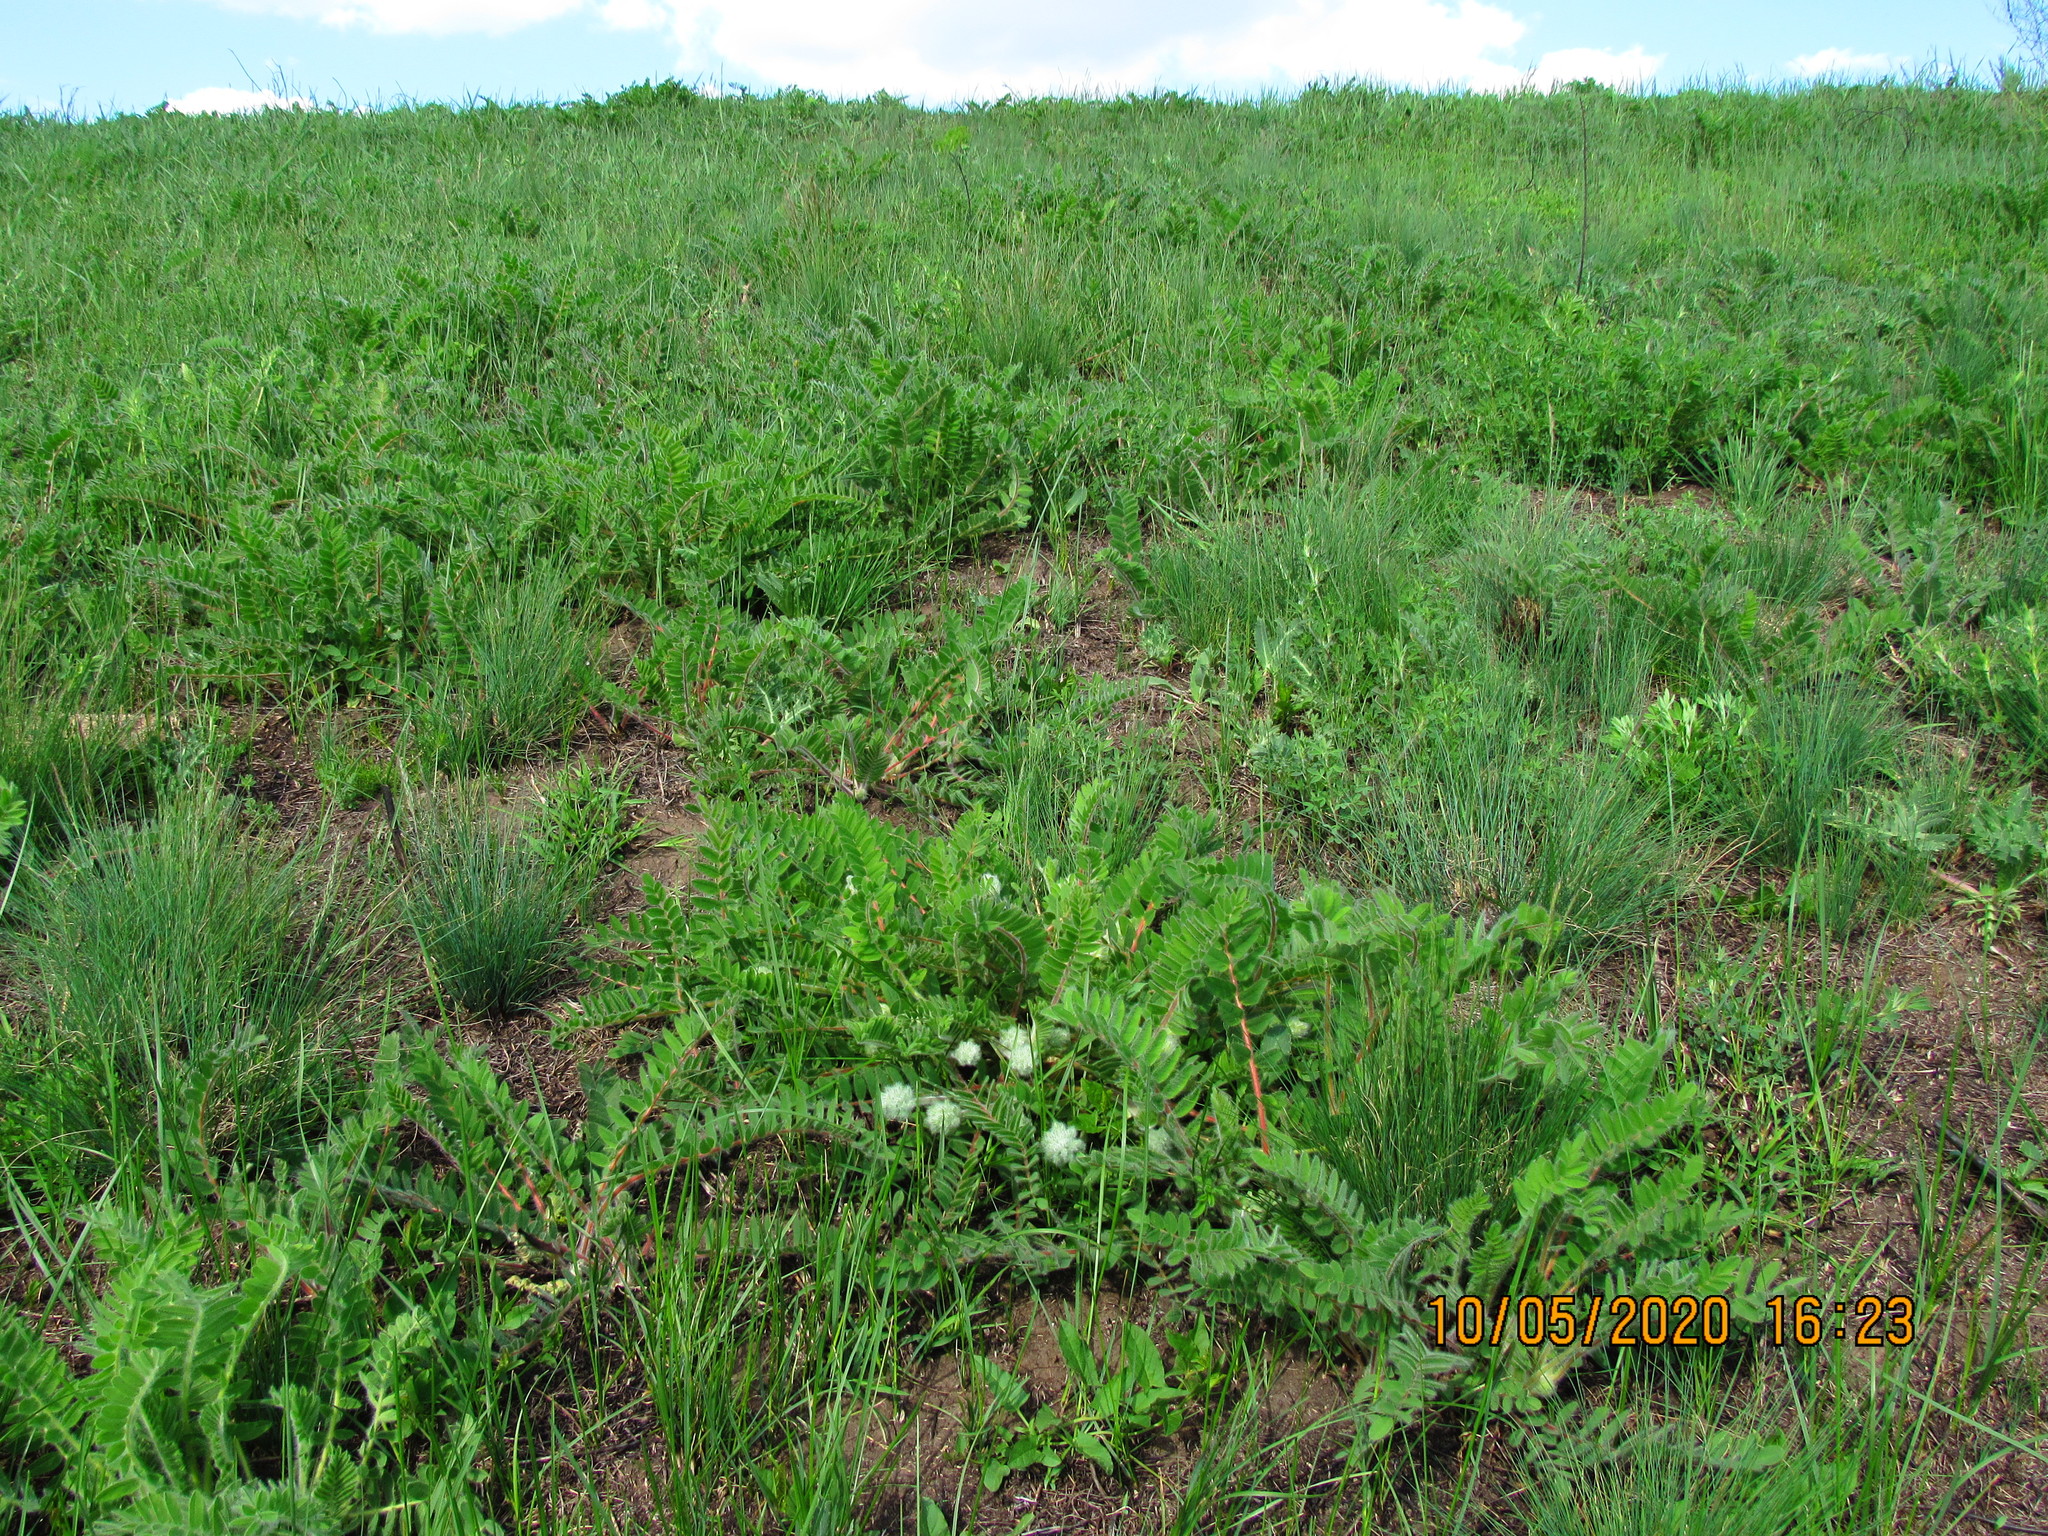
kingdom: Plantae
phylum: Tracheophyta
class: Magnoliopsida
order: Fabales
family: Fabaceae
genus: Astragalus
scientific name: Astragalus dasyanthus
